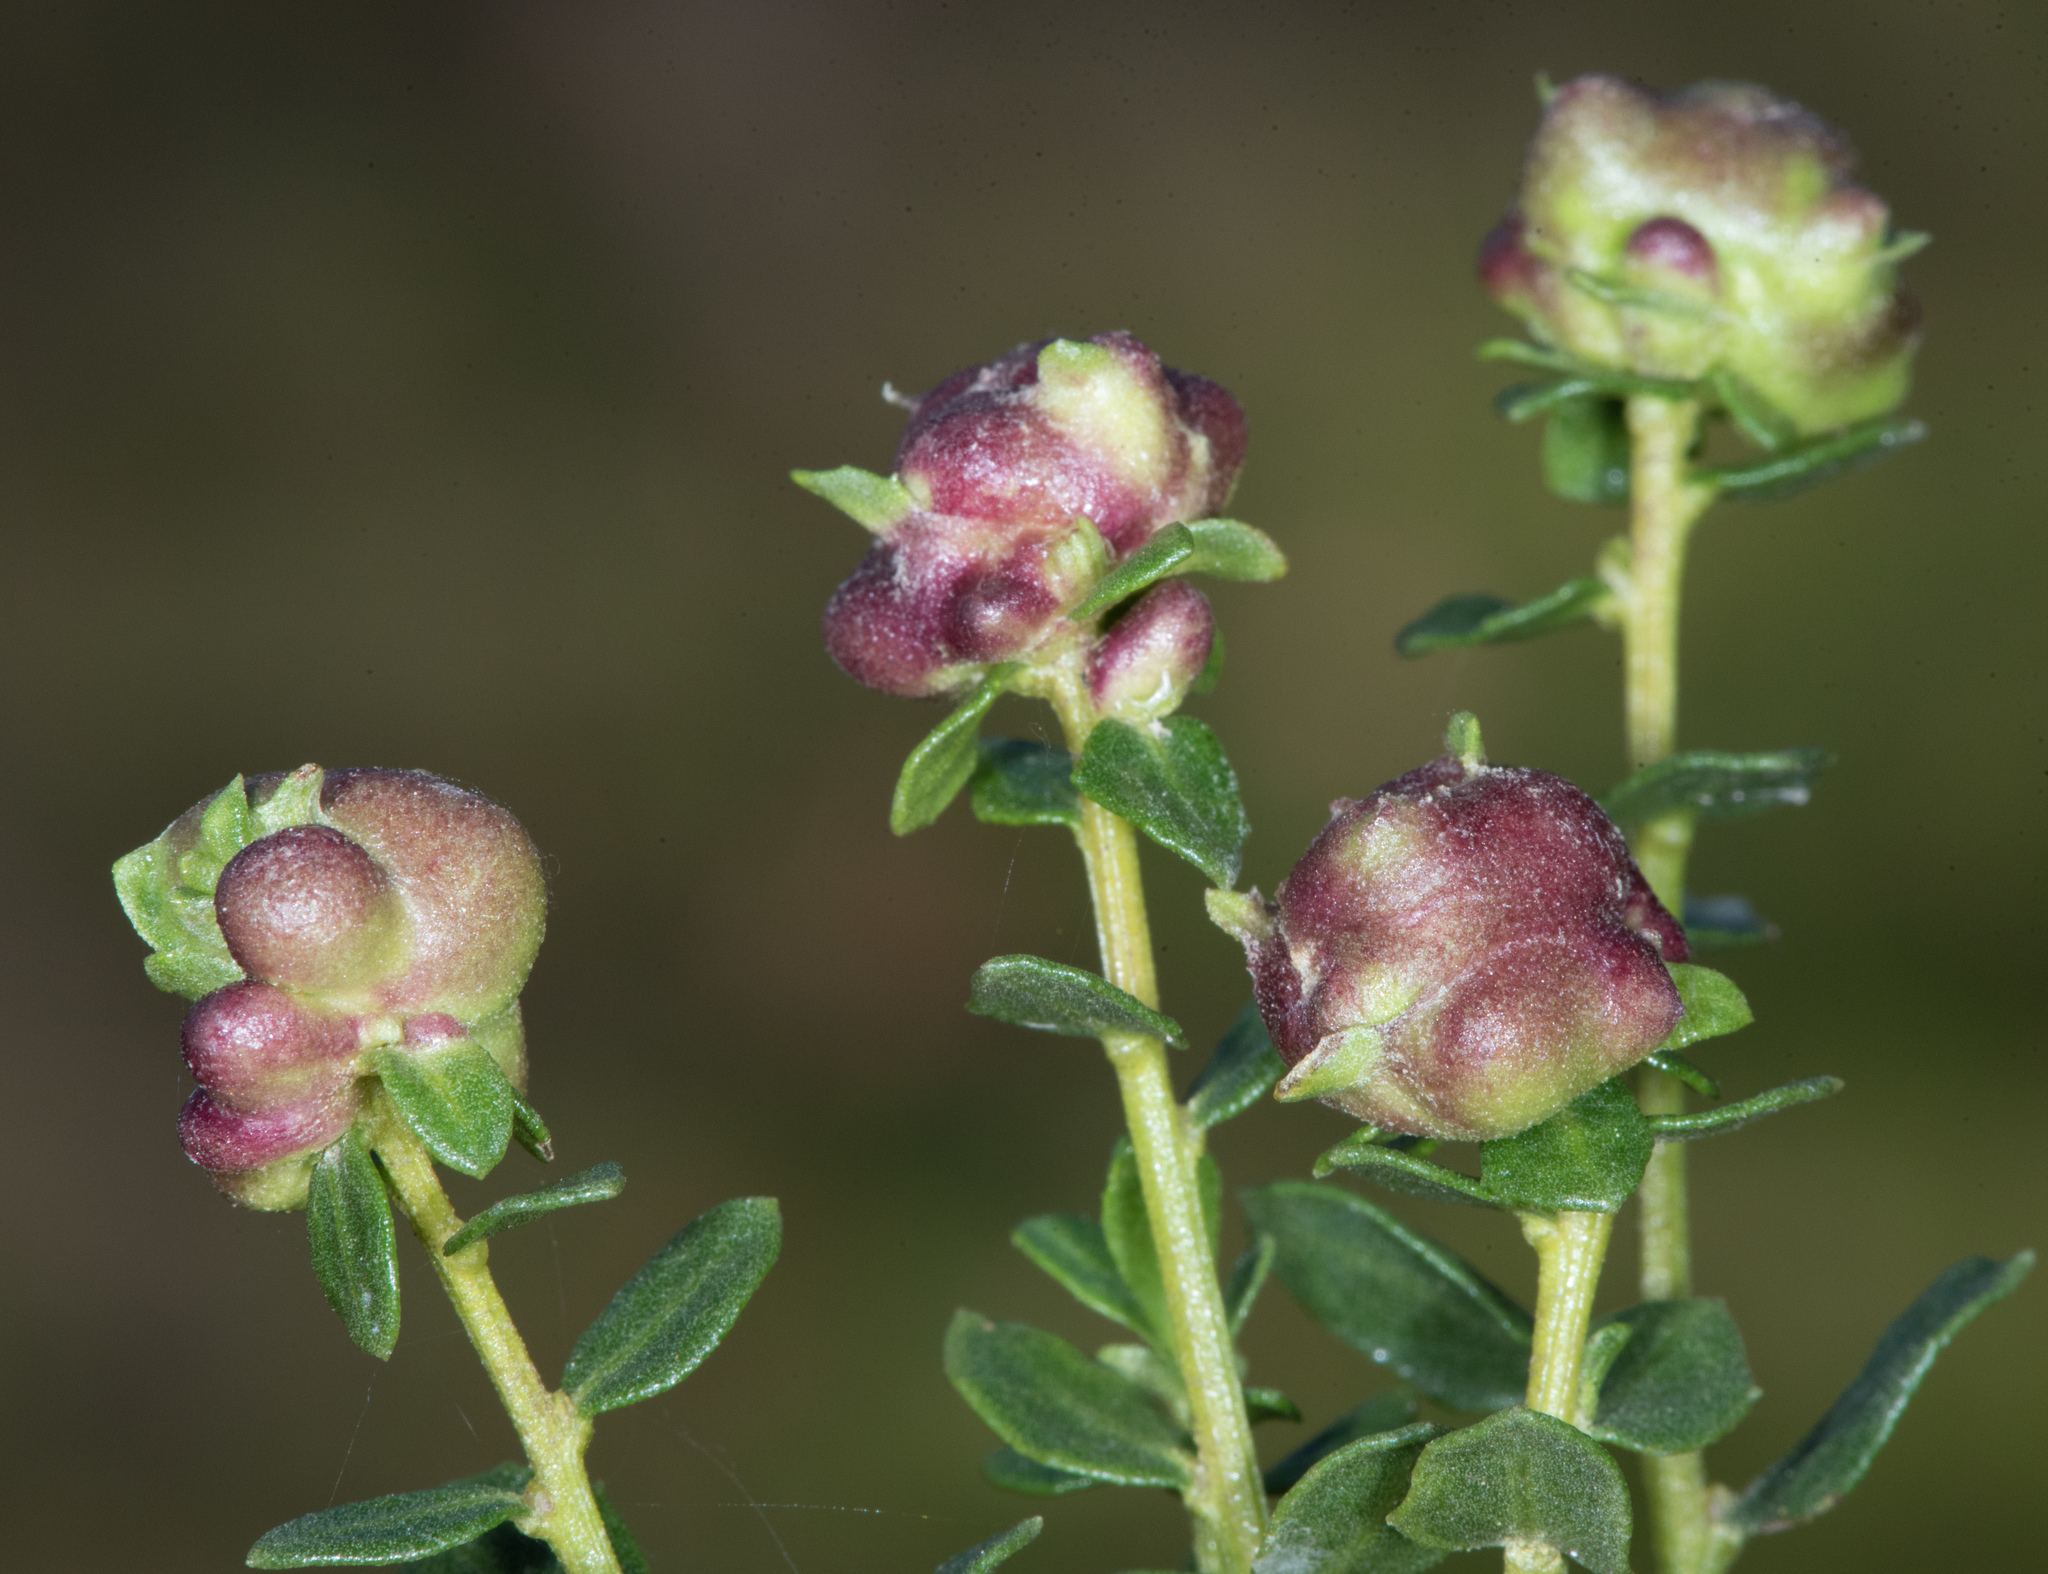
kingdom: Animalia
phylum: Arthropoda
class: Insecta
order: Diptera
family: Cecidomyiidae
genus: Rhopalomyia
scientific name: Rhopalomyia californica
